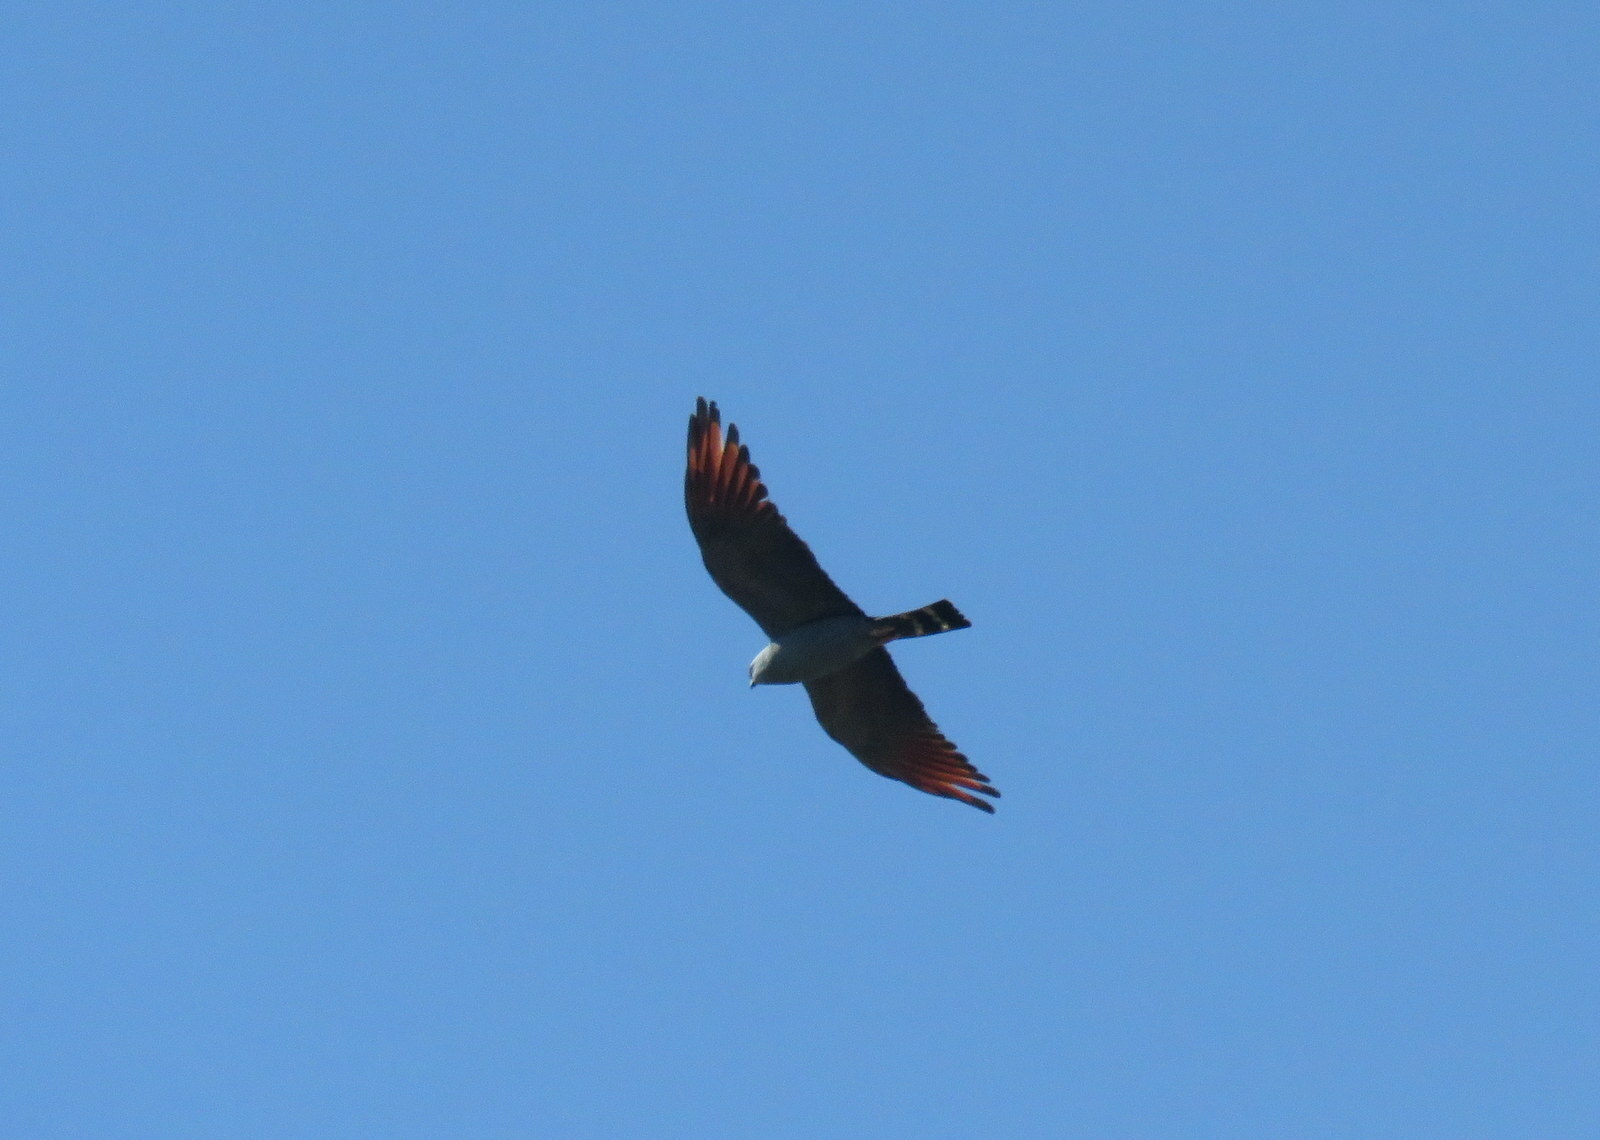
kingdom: Animalia
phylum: Chordata
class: Aves
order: Accipitriformes
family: Accipitridae
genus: Ictinia
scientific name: Ictinia plumbea
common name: Plumbeous kite
